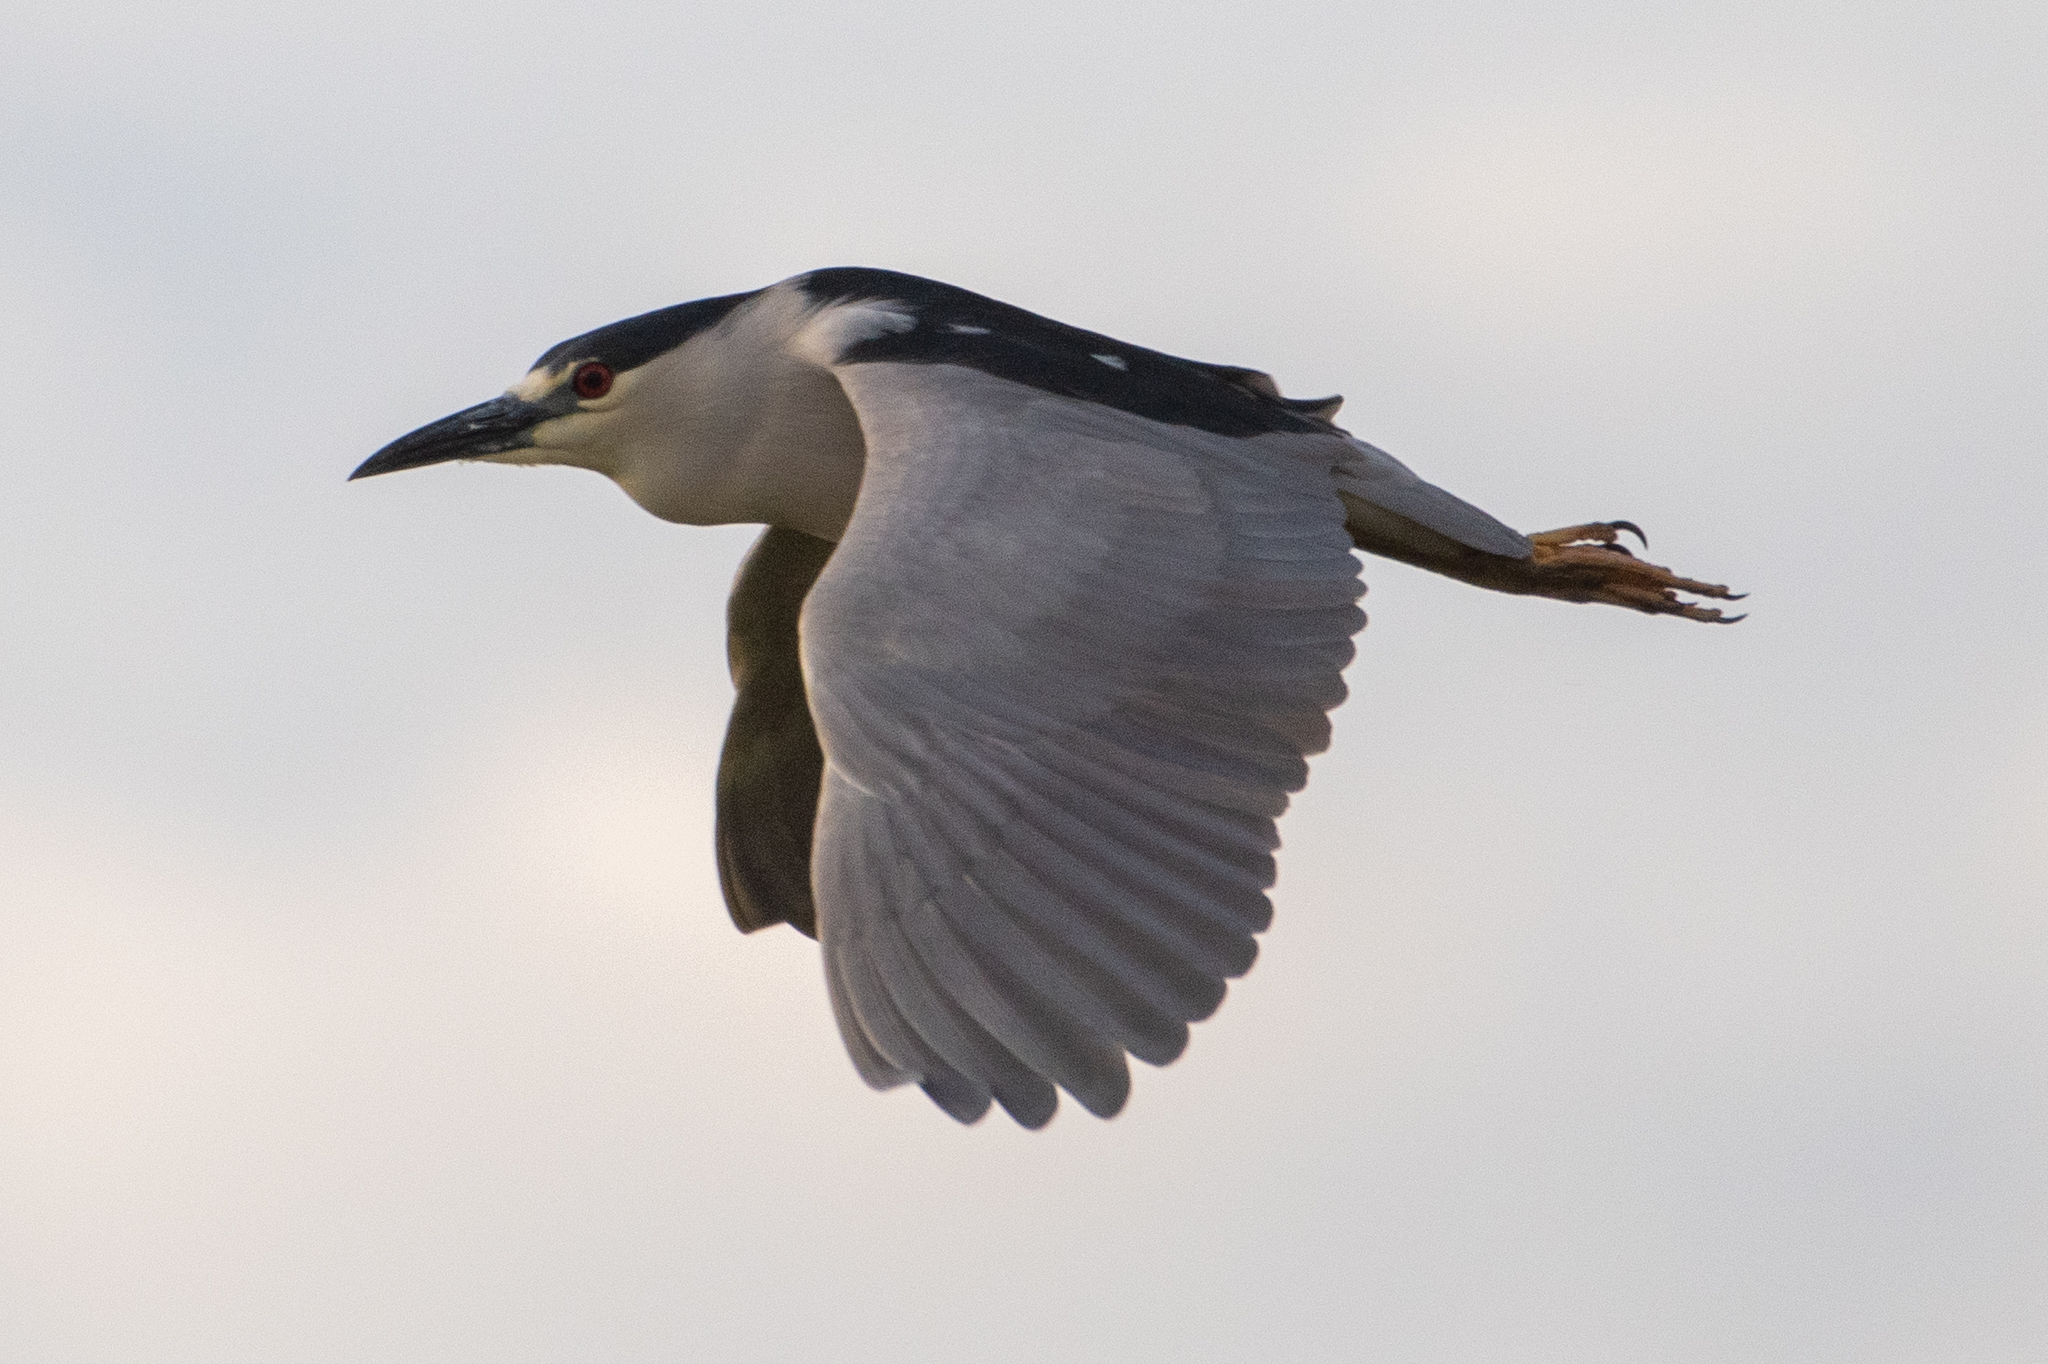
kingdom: Animalia
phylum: Chordata
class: Aves
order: Pelecaniformes
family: Ardeidae
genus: Nycticorax
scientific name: Nycticorax nycticorax
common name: Black-crowned night heron
